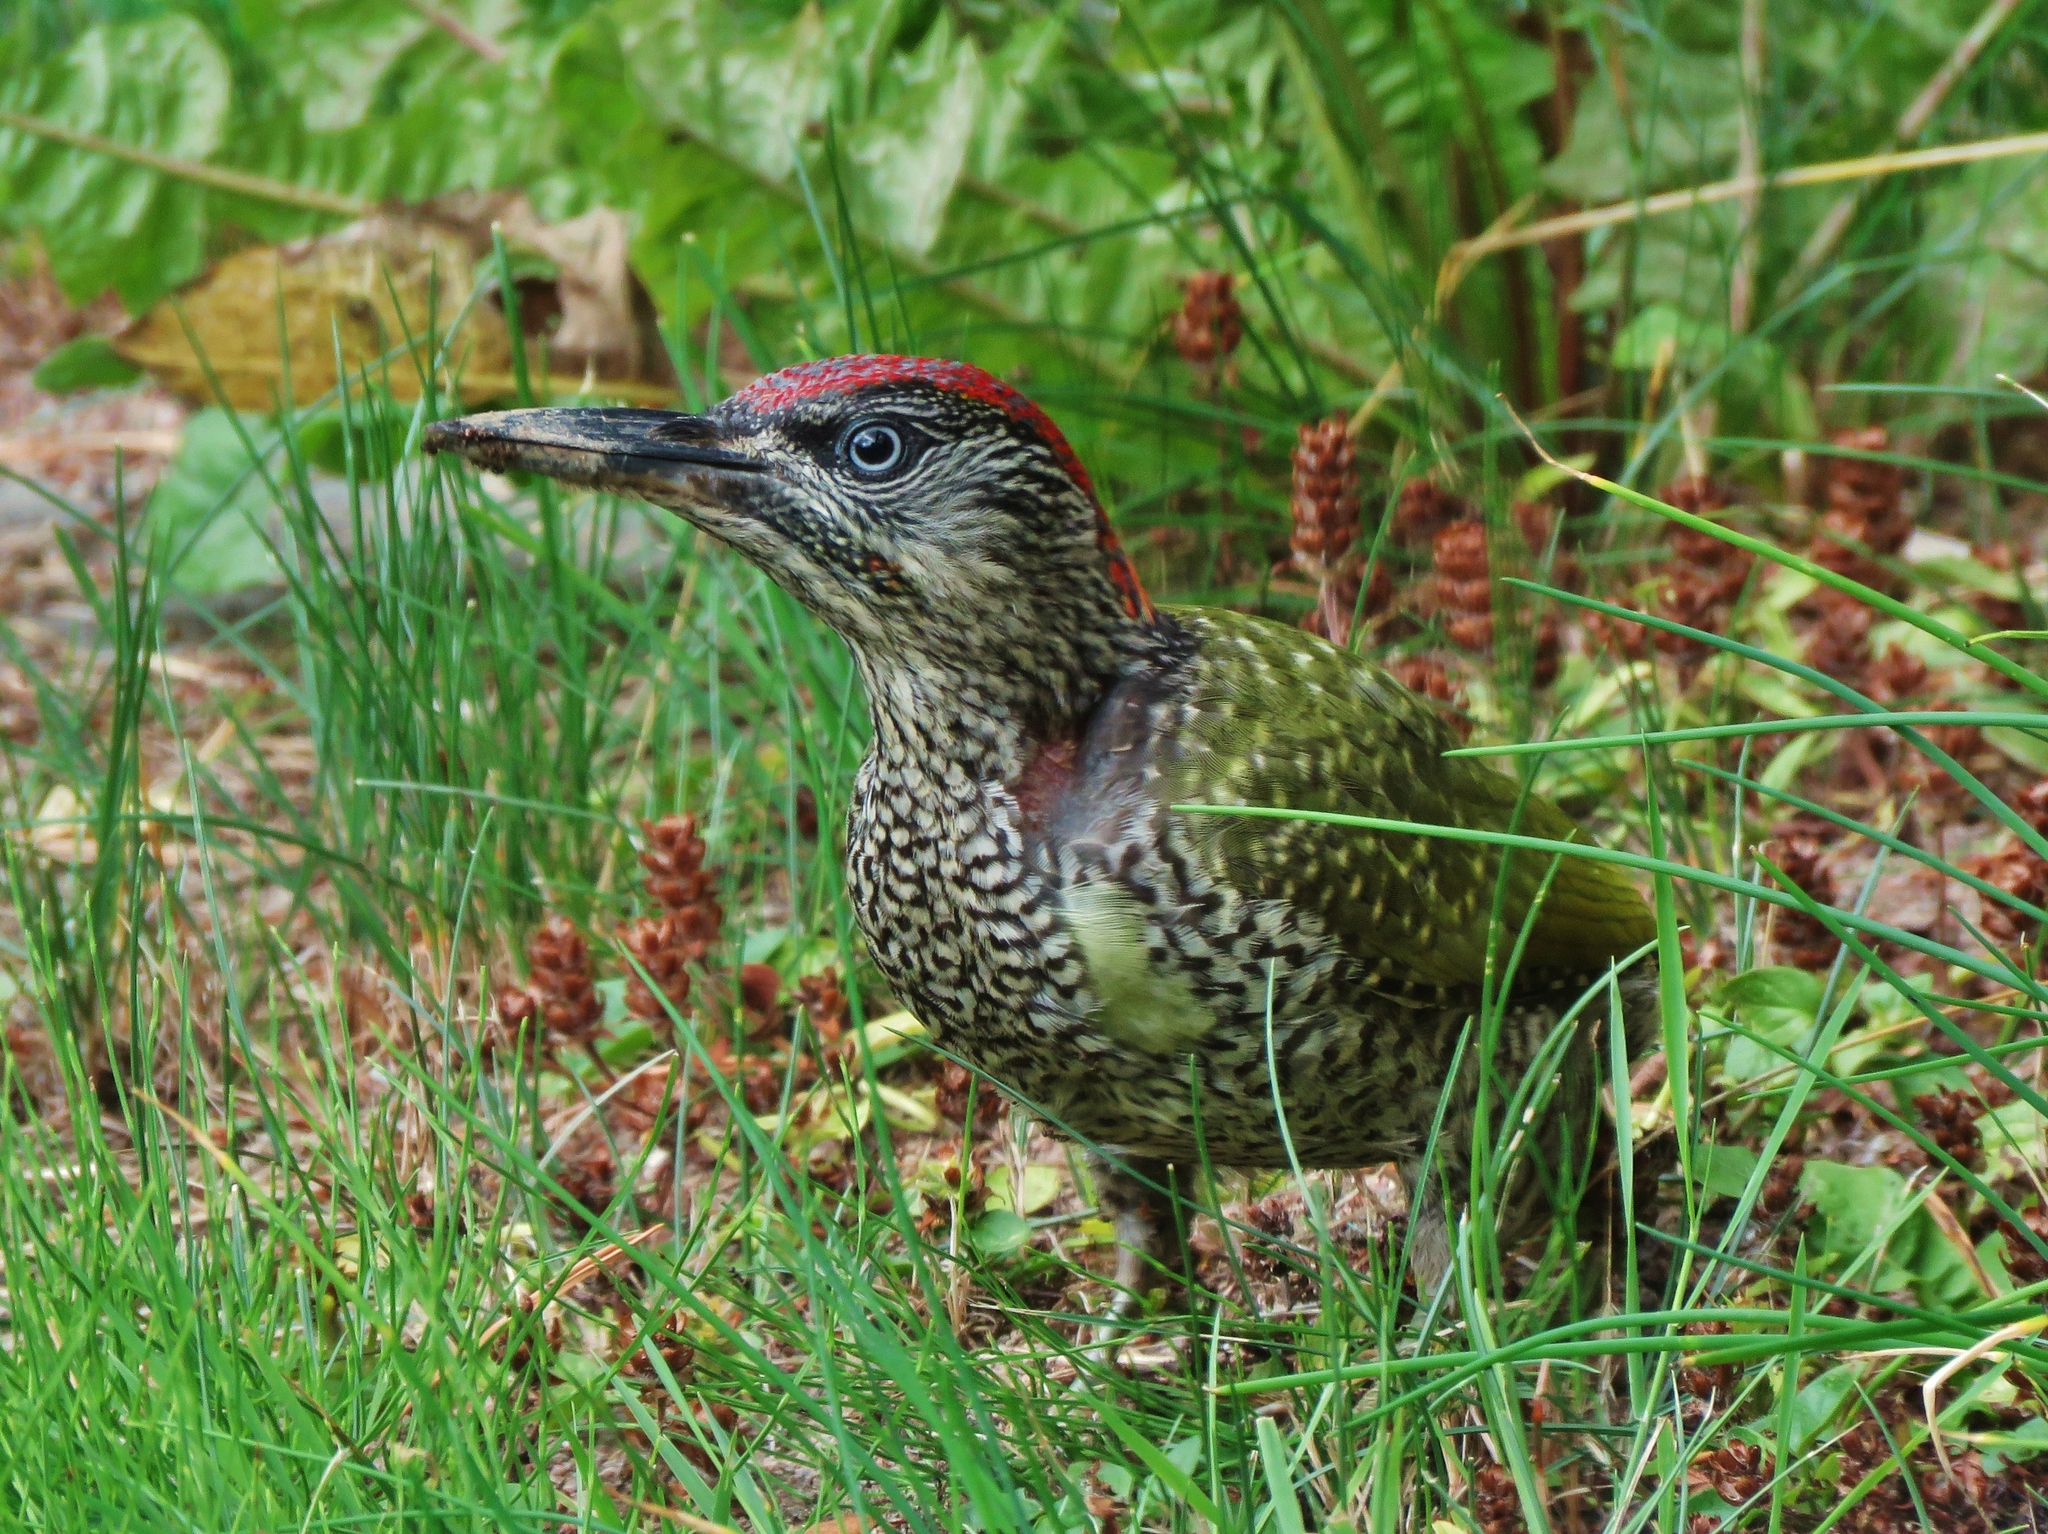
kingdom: Animalia
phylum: Chordata
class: Aves
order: Piciformes
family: Picidae
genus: Picus
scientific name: Picus viridis
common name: European green woodpecker
